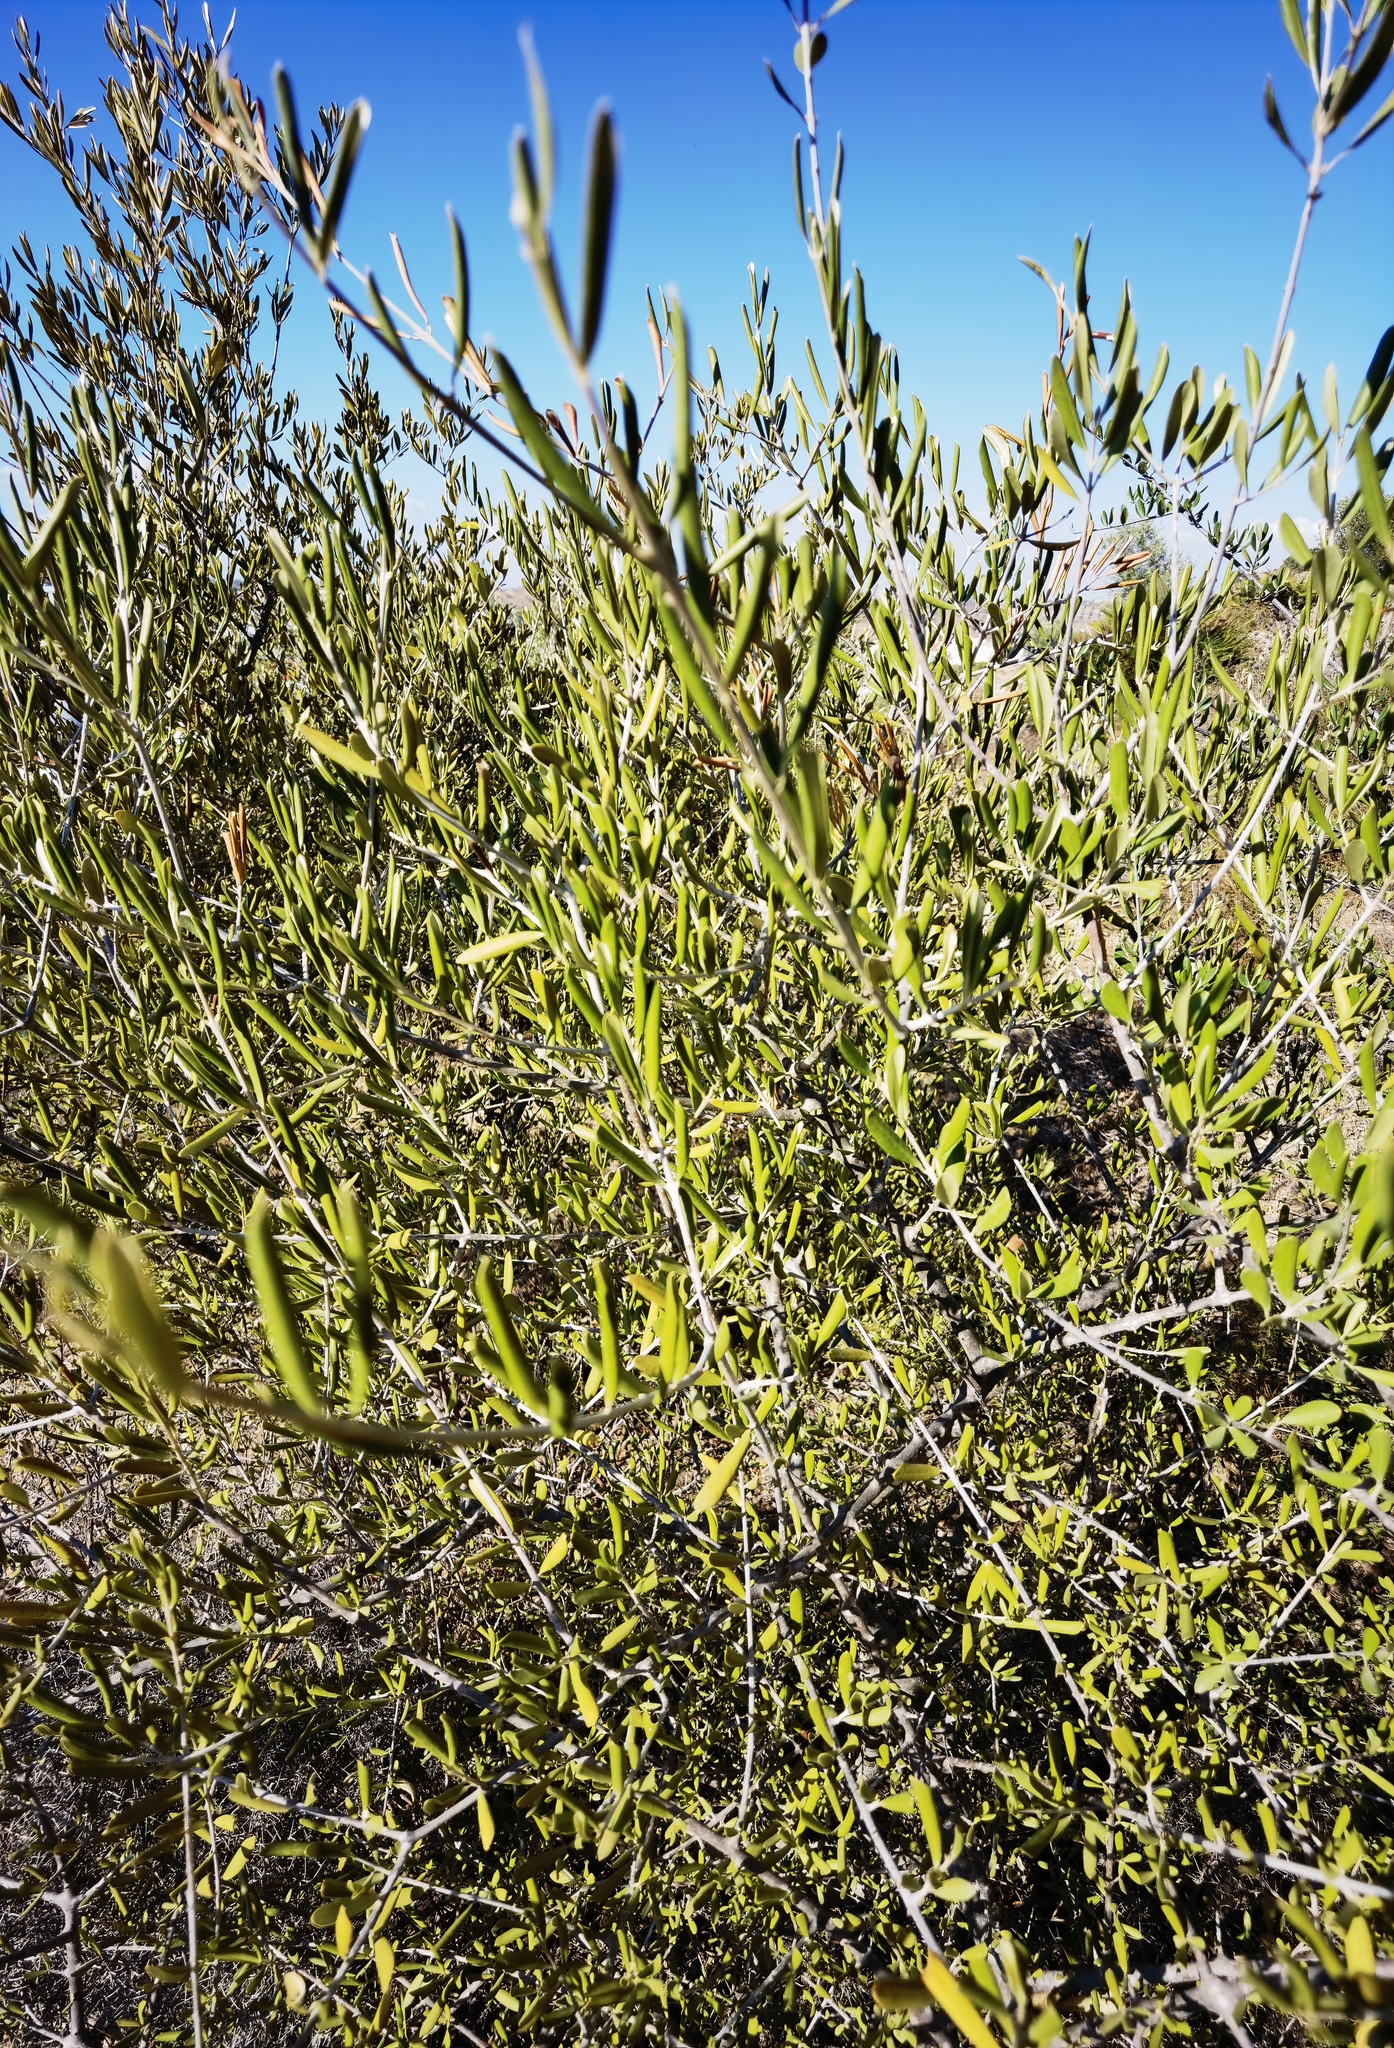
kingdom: Plantae
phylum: Tracheophyta
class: Magnoliopsida
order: Lamiales
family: Oleaceae
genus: Olea
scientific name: Olea europaea
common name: Olive
